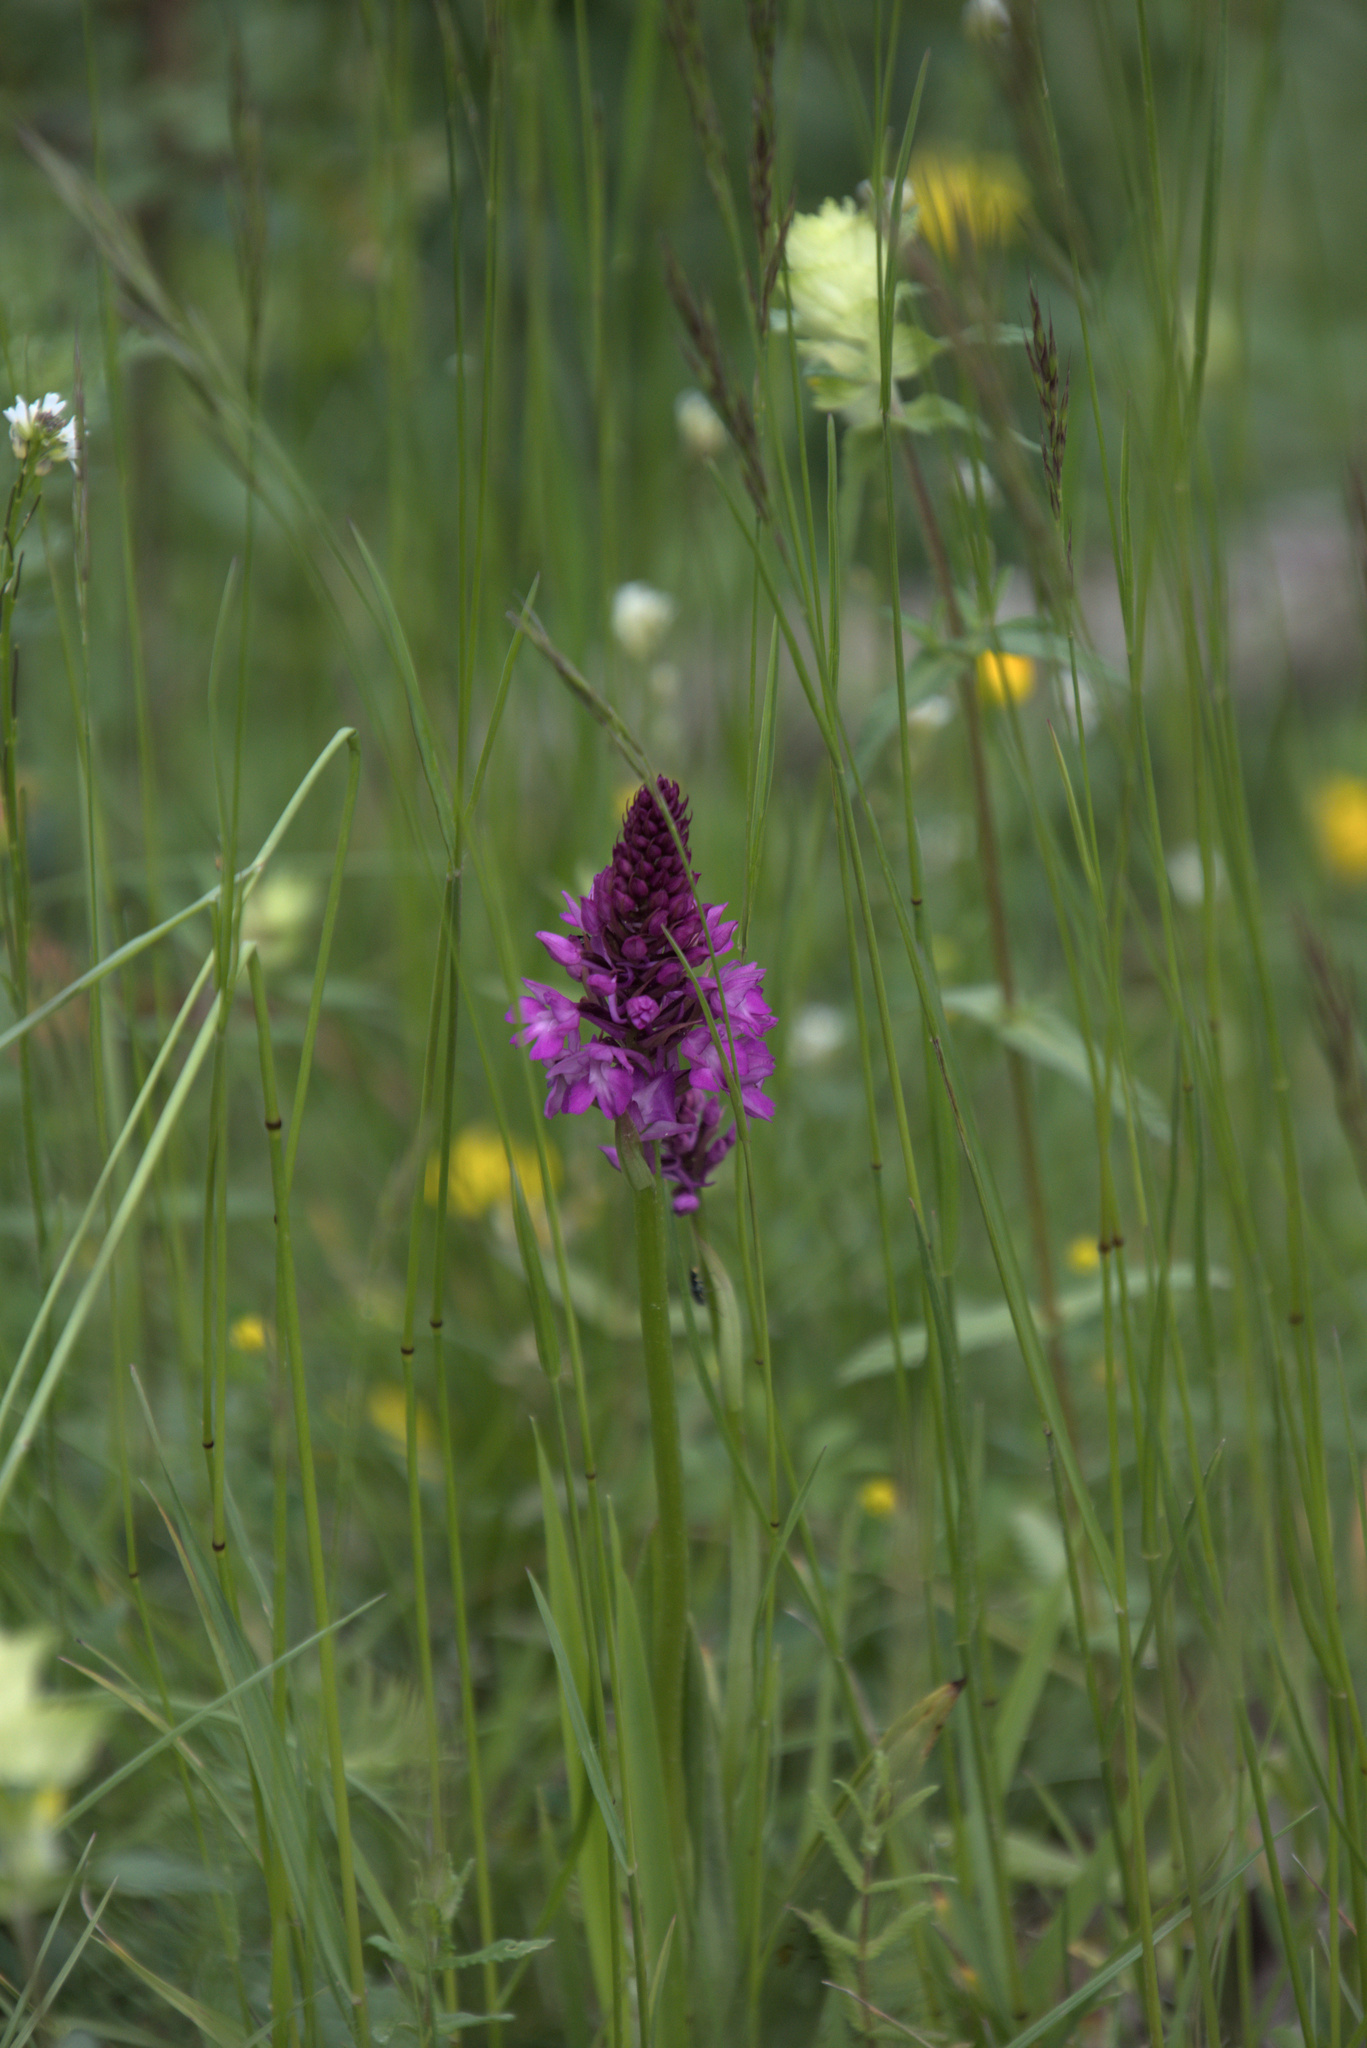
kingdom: Plantae
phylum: Tracheophyta
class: Liliopsida
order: Asparagales
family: Orchidaceae
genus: Anacamptis
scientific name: Anacamptis pyramidalis
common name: Pyramidal orchid
